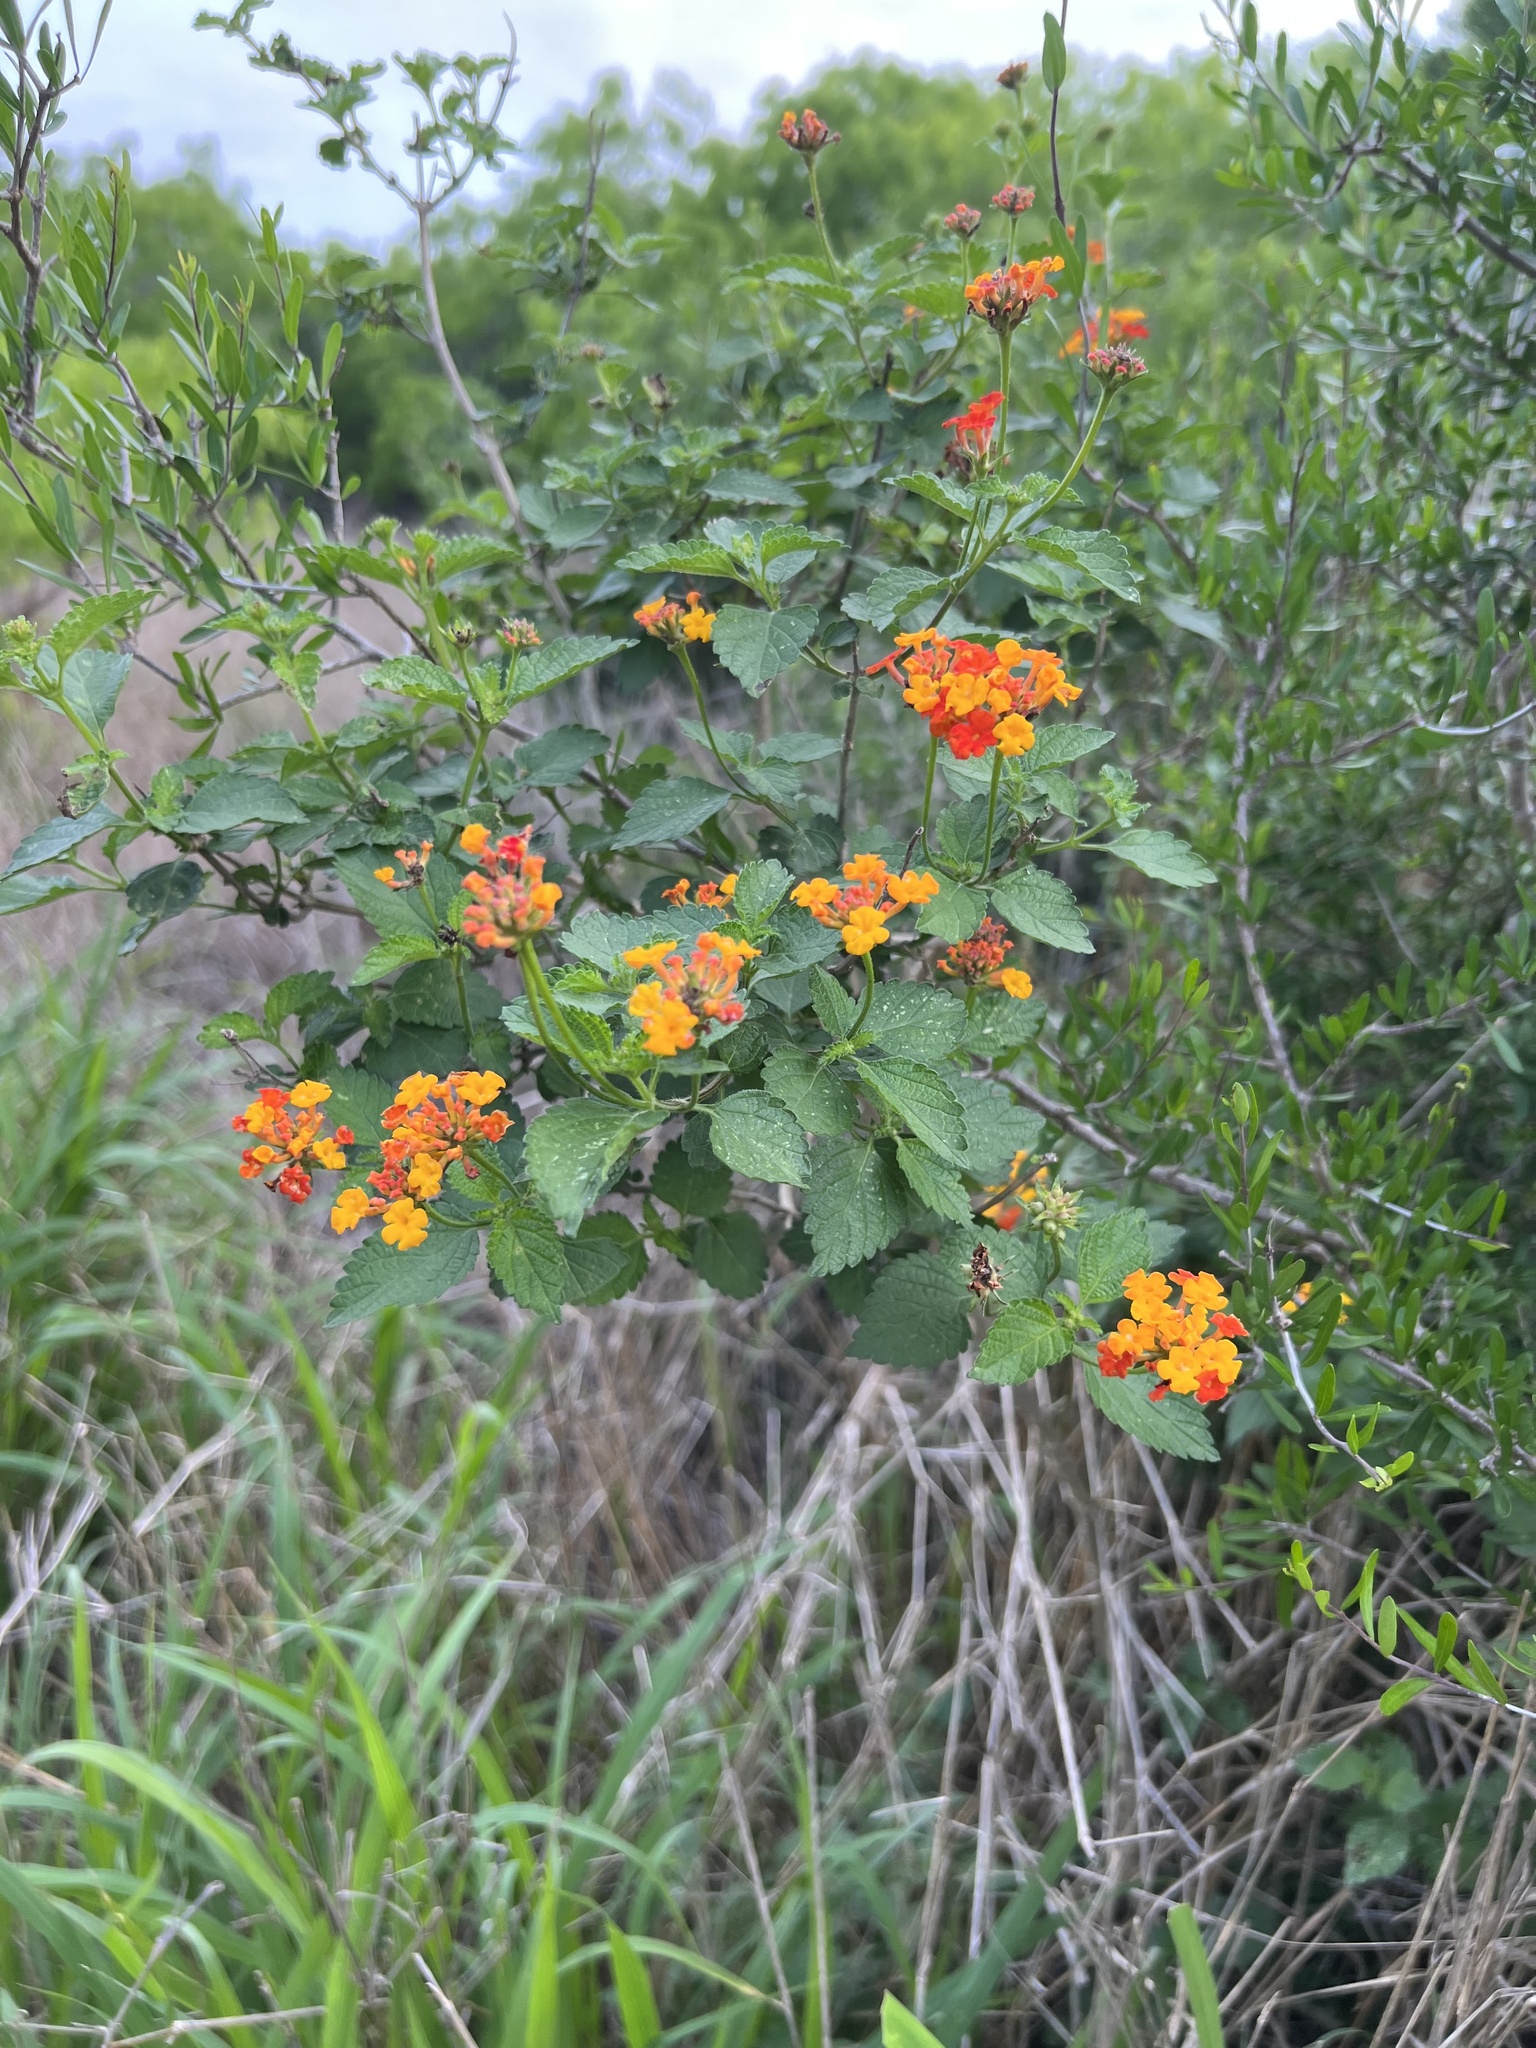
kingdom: Plantae
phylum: Tracheophyta
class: Magnoliopsida
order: Lamiales
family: Verbenaceae
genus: Lantana
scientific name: Lantana urticoides
